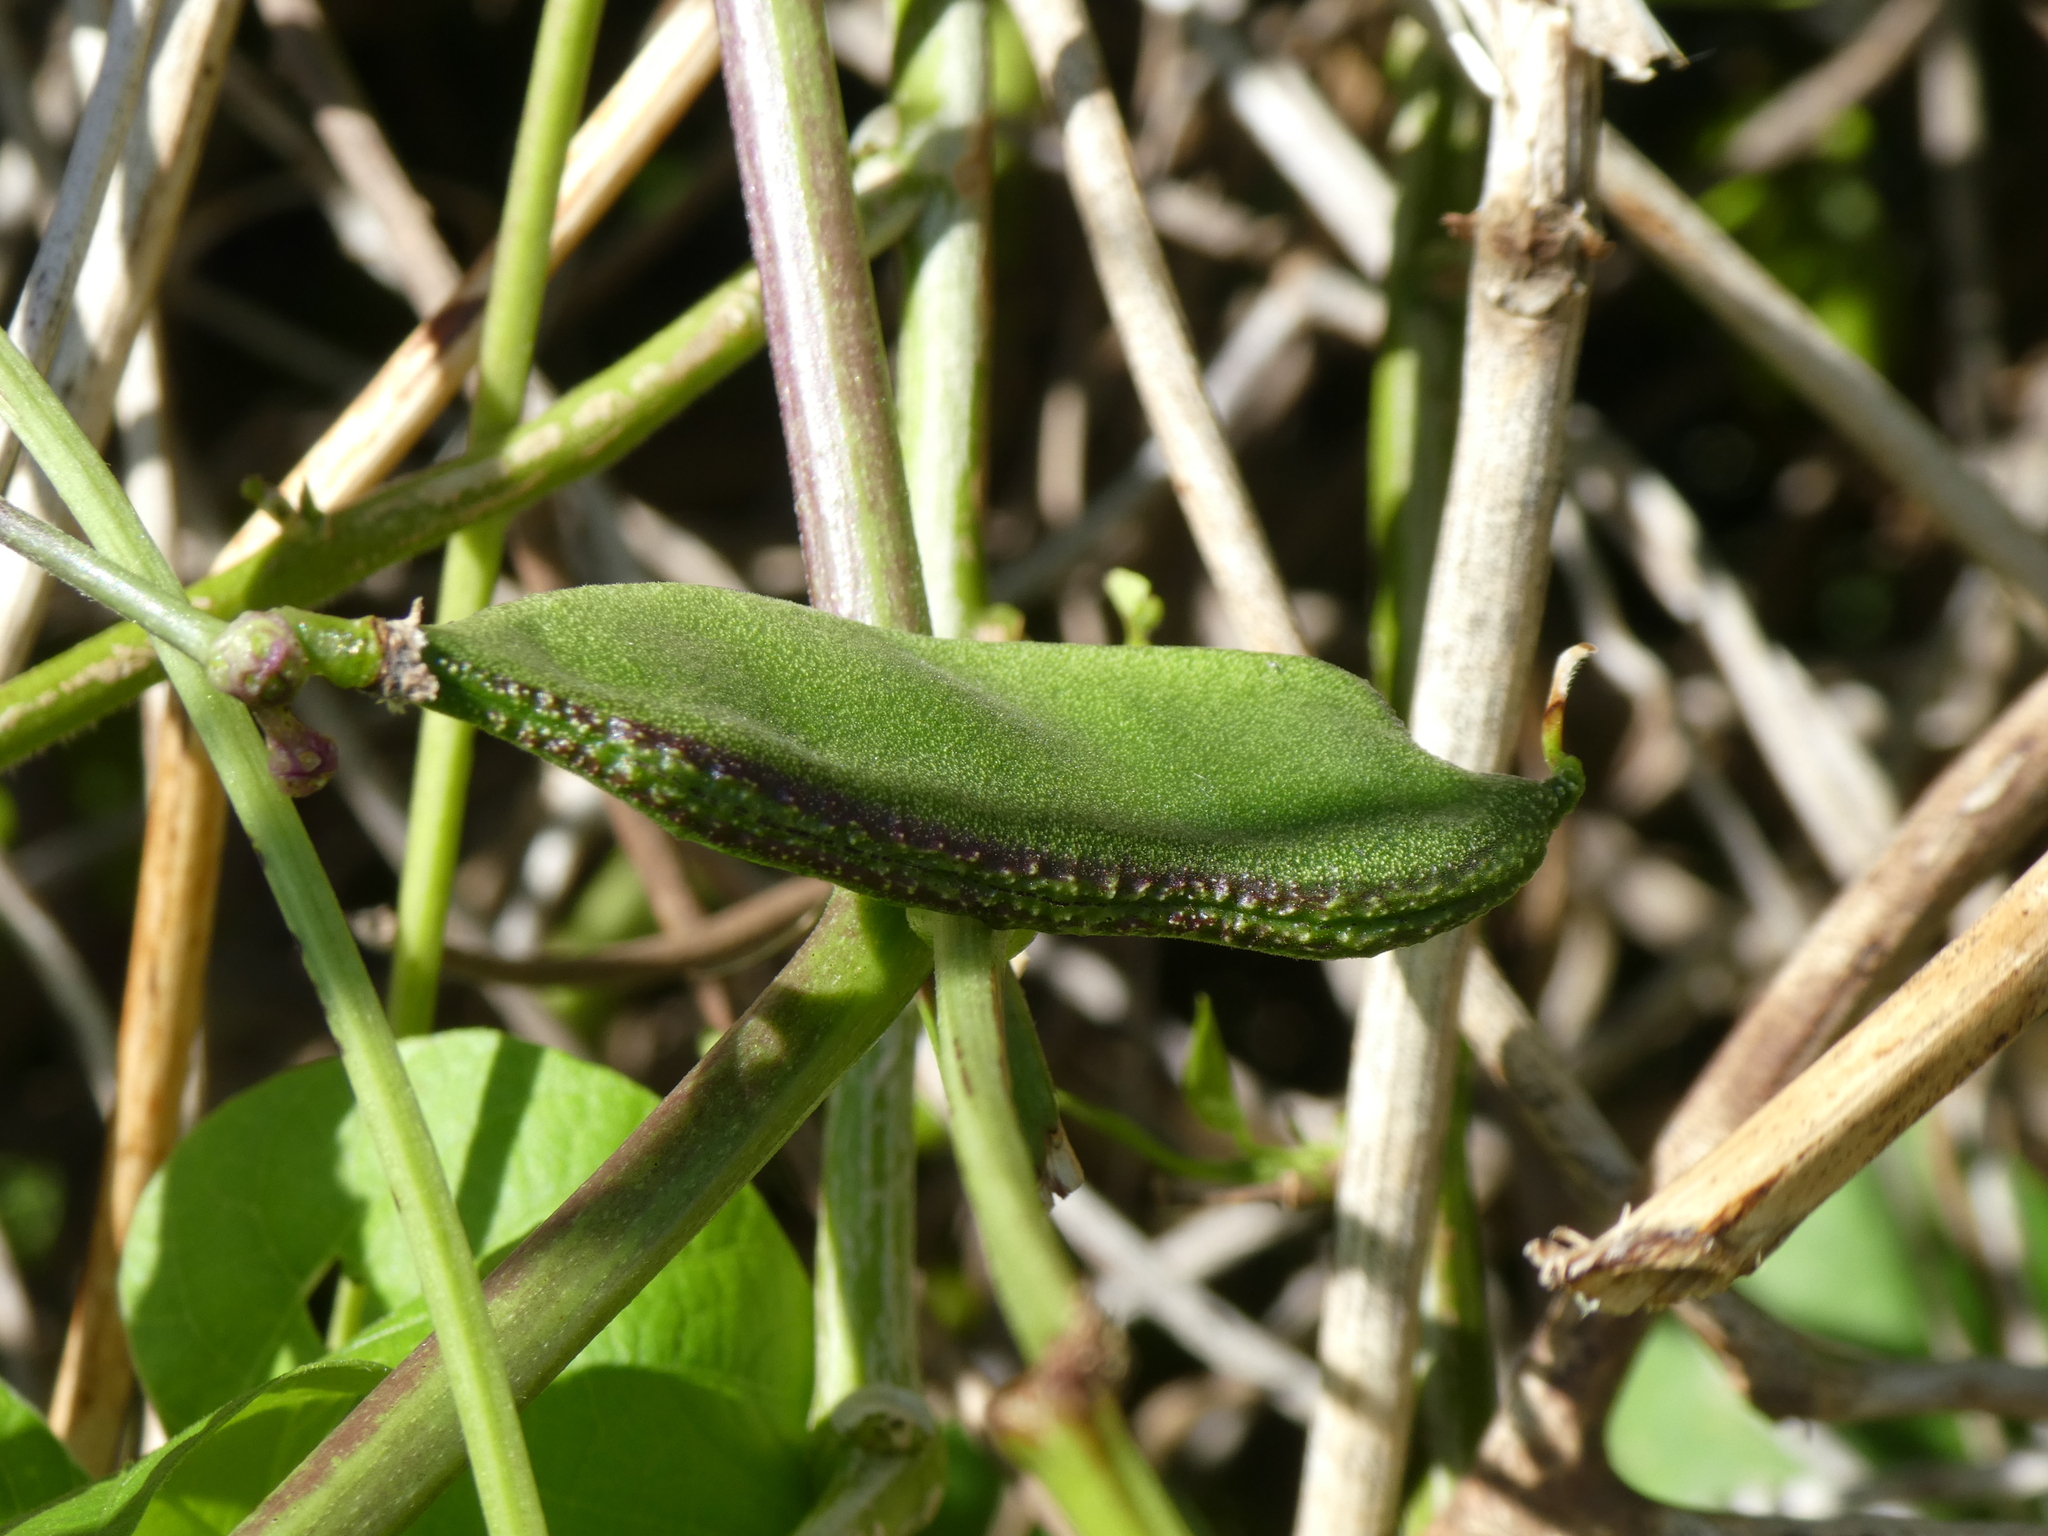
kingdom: Plantae
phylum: Tracheophyta
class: Magnoliopsida
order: Fabales
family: Fabaceae
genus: Lablab
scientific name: Lablab purpureus
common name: Lablab-bean
